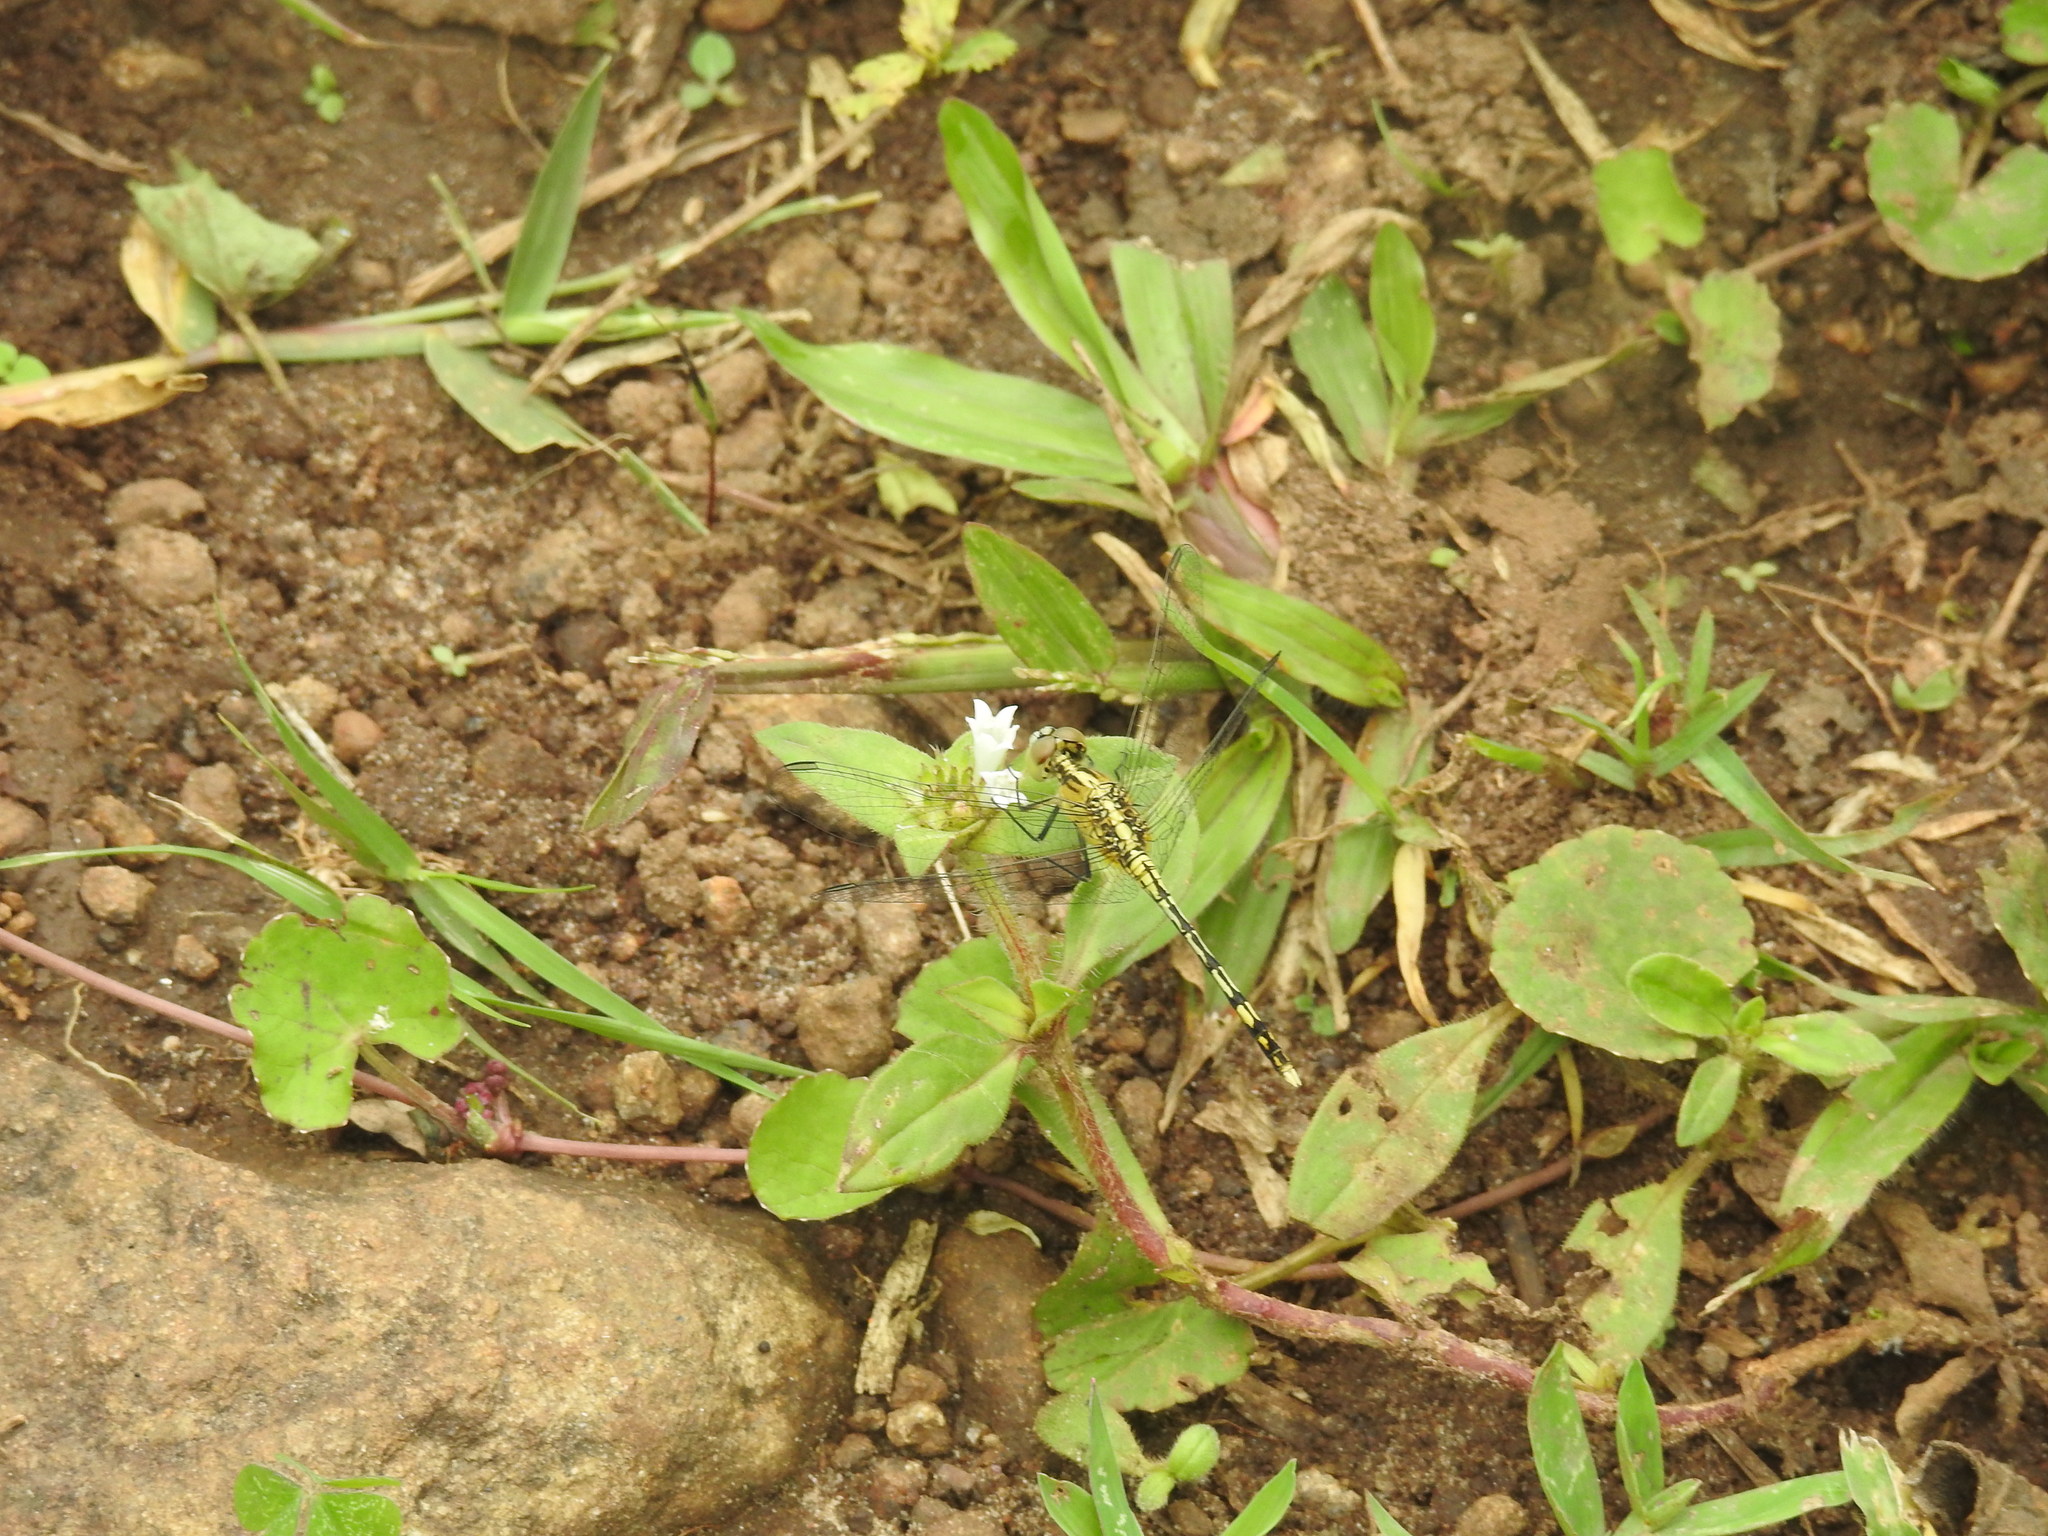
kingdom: Animalia
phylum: Arthropoda
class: Insecta
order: Odonata
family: Libellulidae
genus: Diplacodes
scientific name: Diplacodes trivialis
